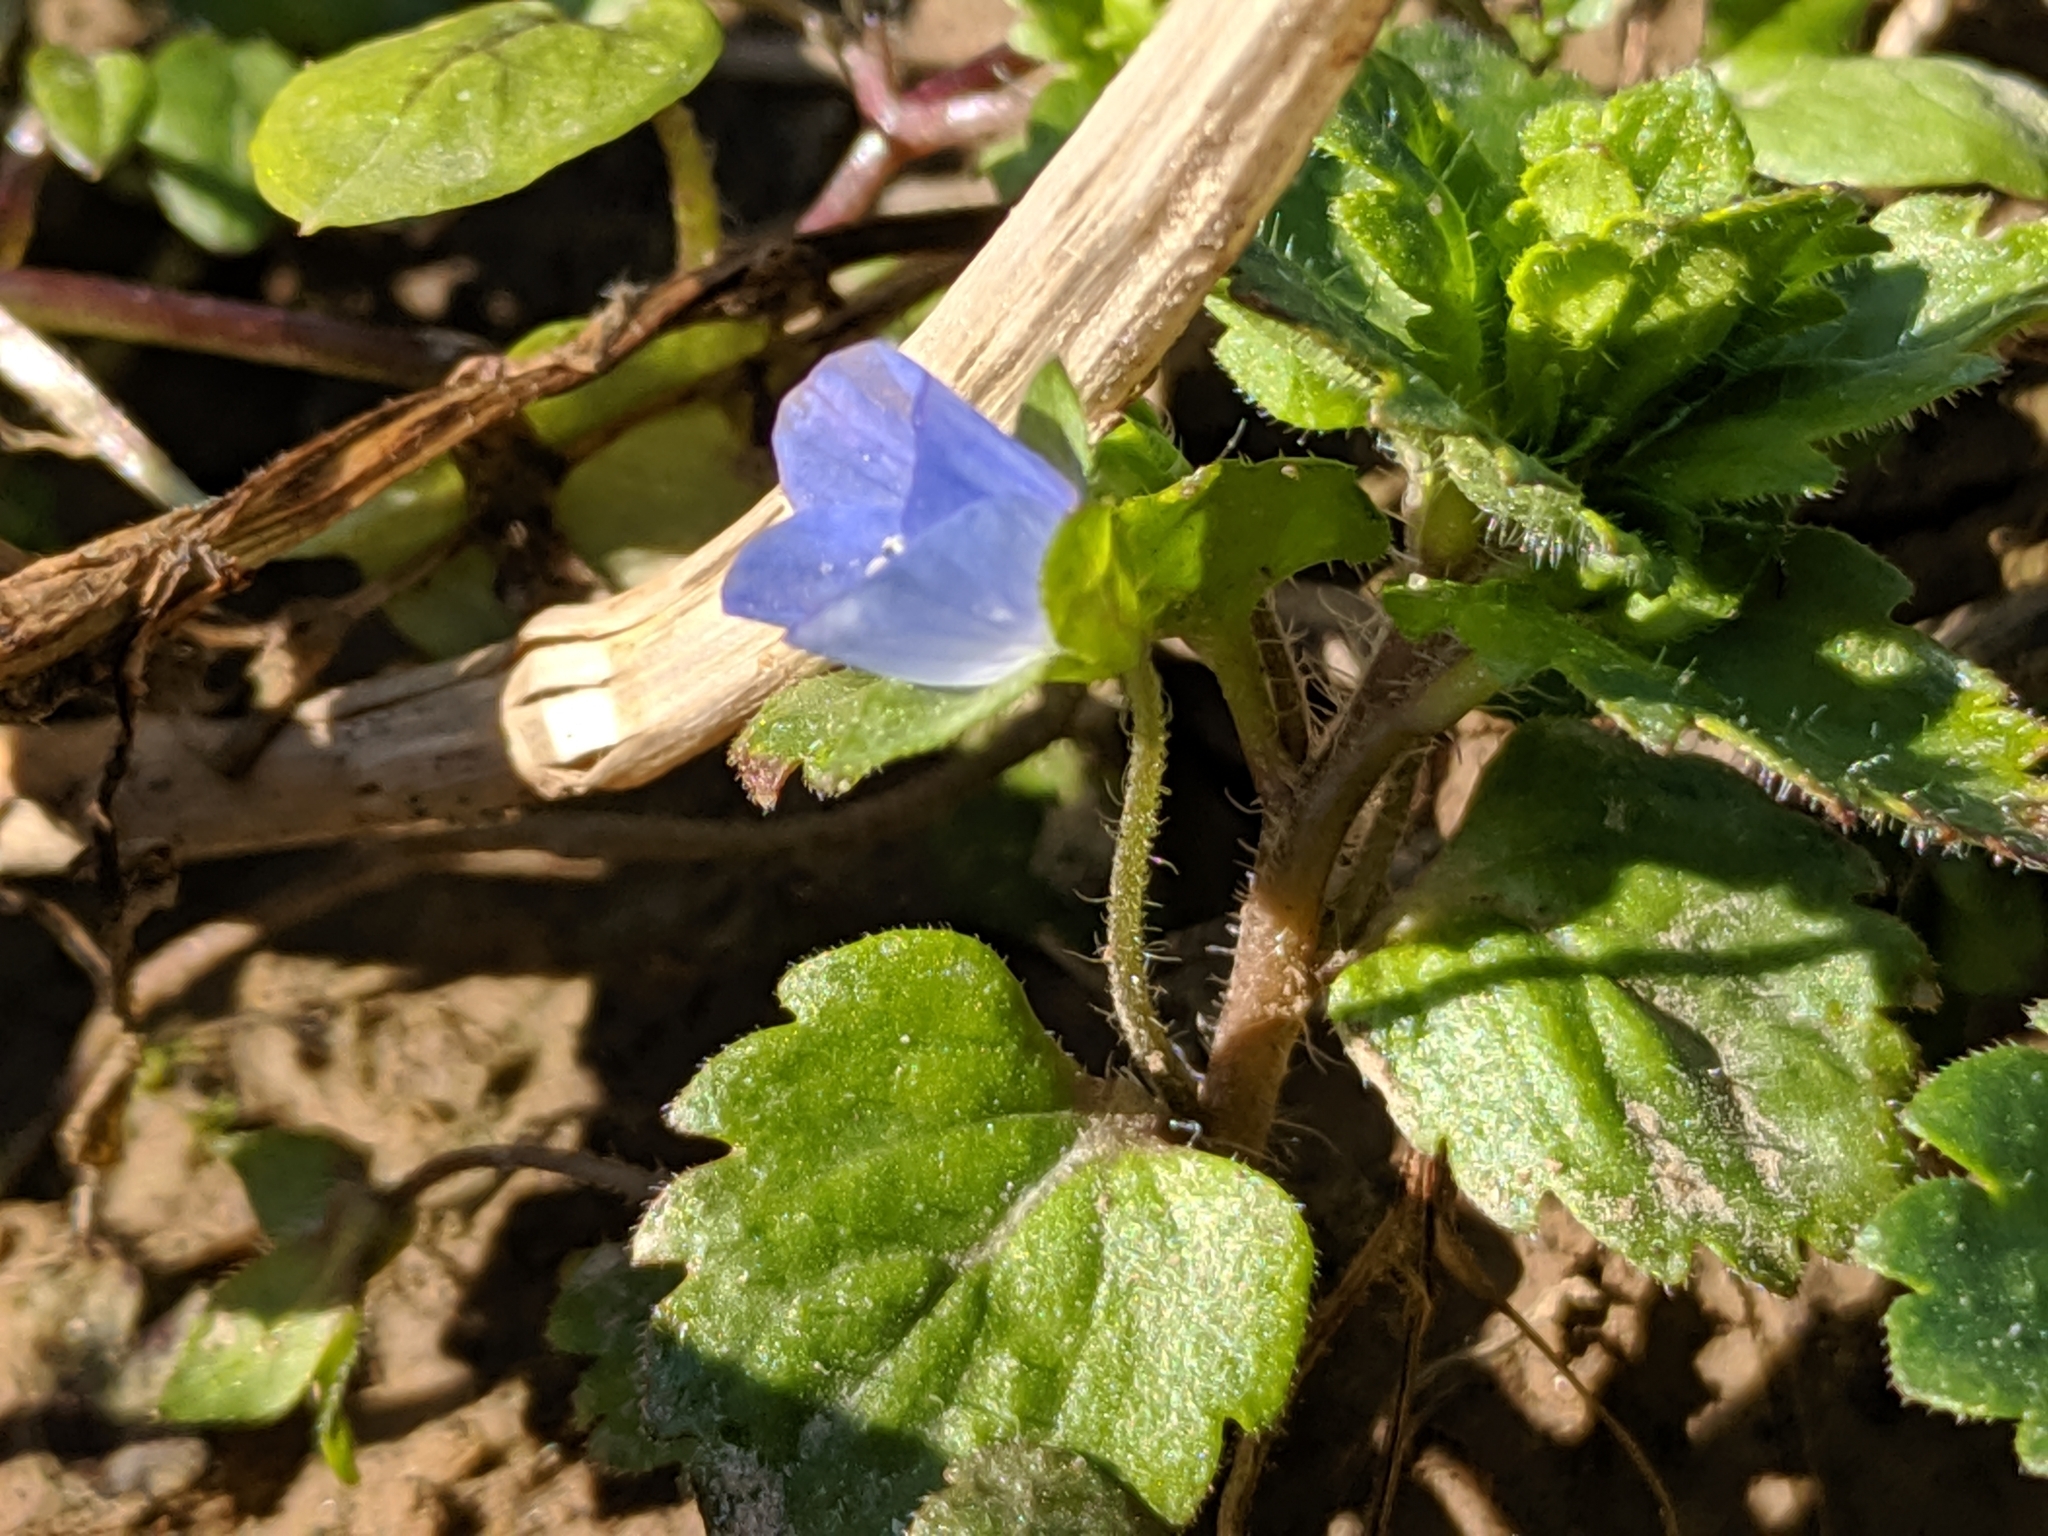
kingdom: Plantae
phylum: Tracheophyta
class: Magnoliopsida
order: Lamiales
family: Plantaginaceae
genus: Veronica
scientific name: Veronica persica
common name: Common field-speedwell
